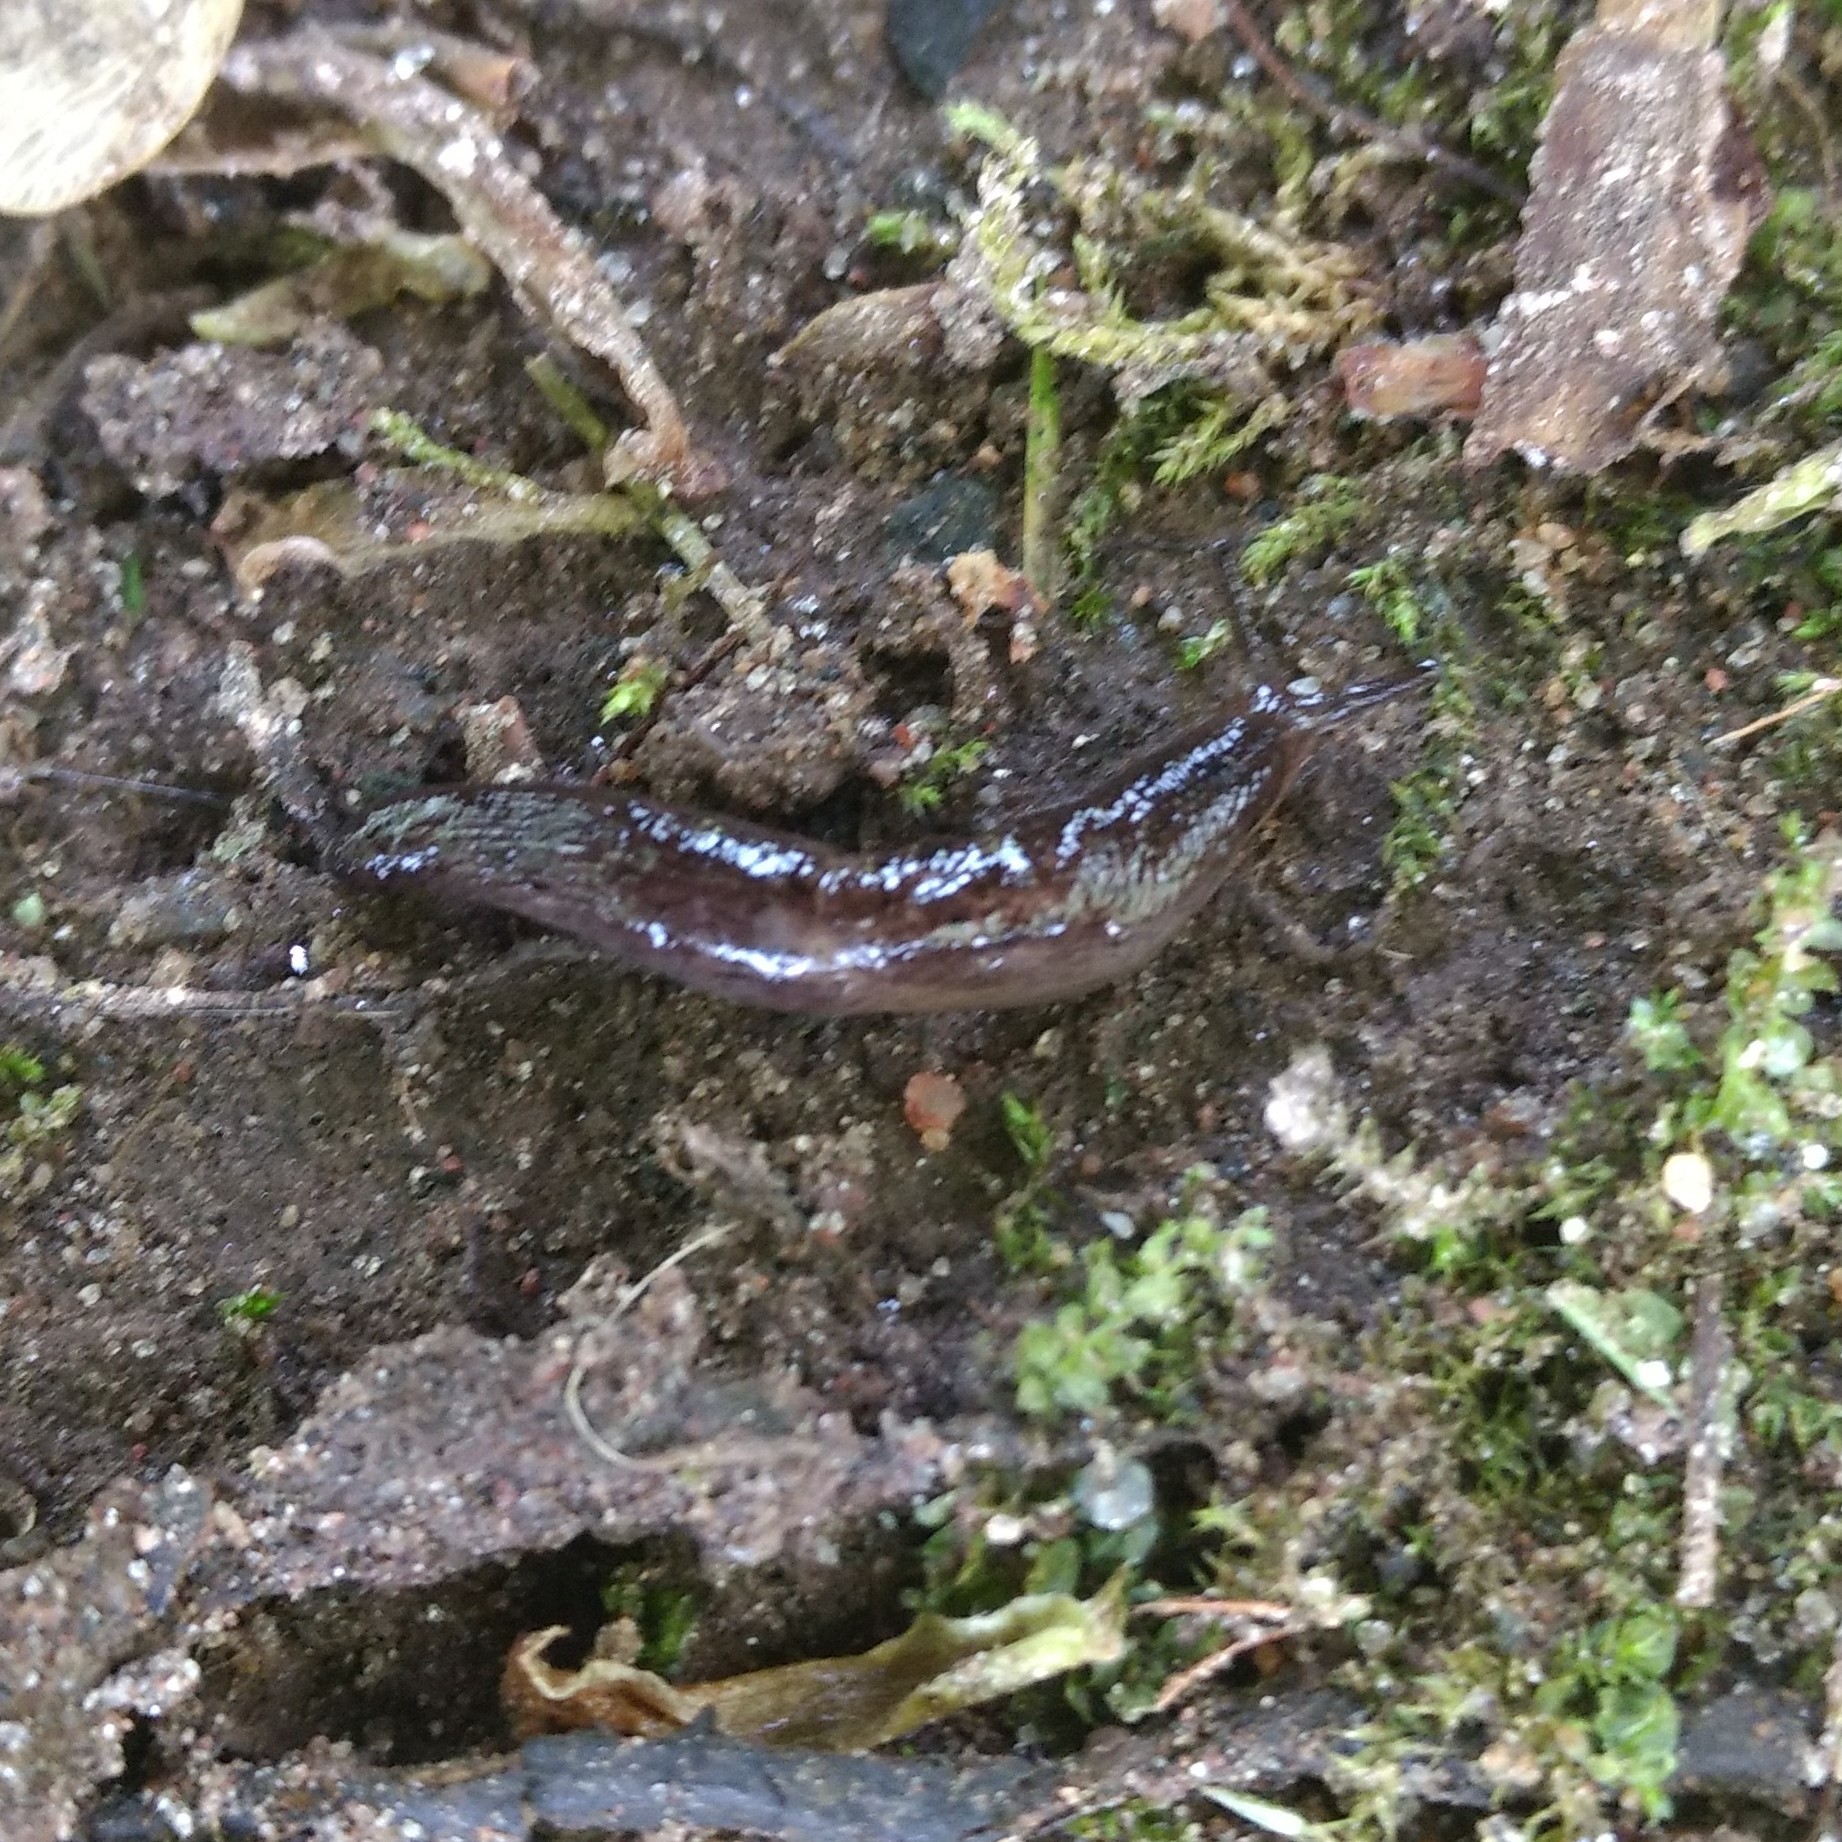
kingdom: Animalia
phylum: Mollusca
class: Gastropoda
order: Stylommatophora
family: Agriolimacidae
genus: Deroceras
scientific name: Deroceras laeve
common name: Marsh slug
